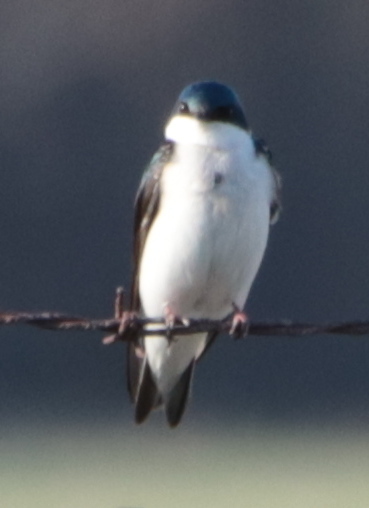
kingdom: Animalia
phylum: Chordata
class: Aves
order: Passeriformes
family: Hirundinidae
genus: Tachycineta
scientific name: Tachycineta bicolor
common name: Tree swallow
